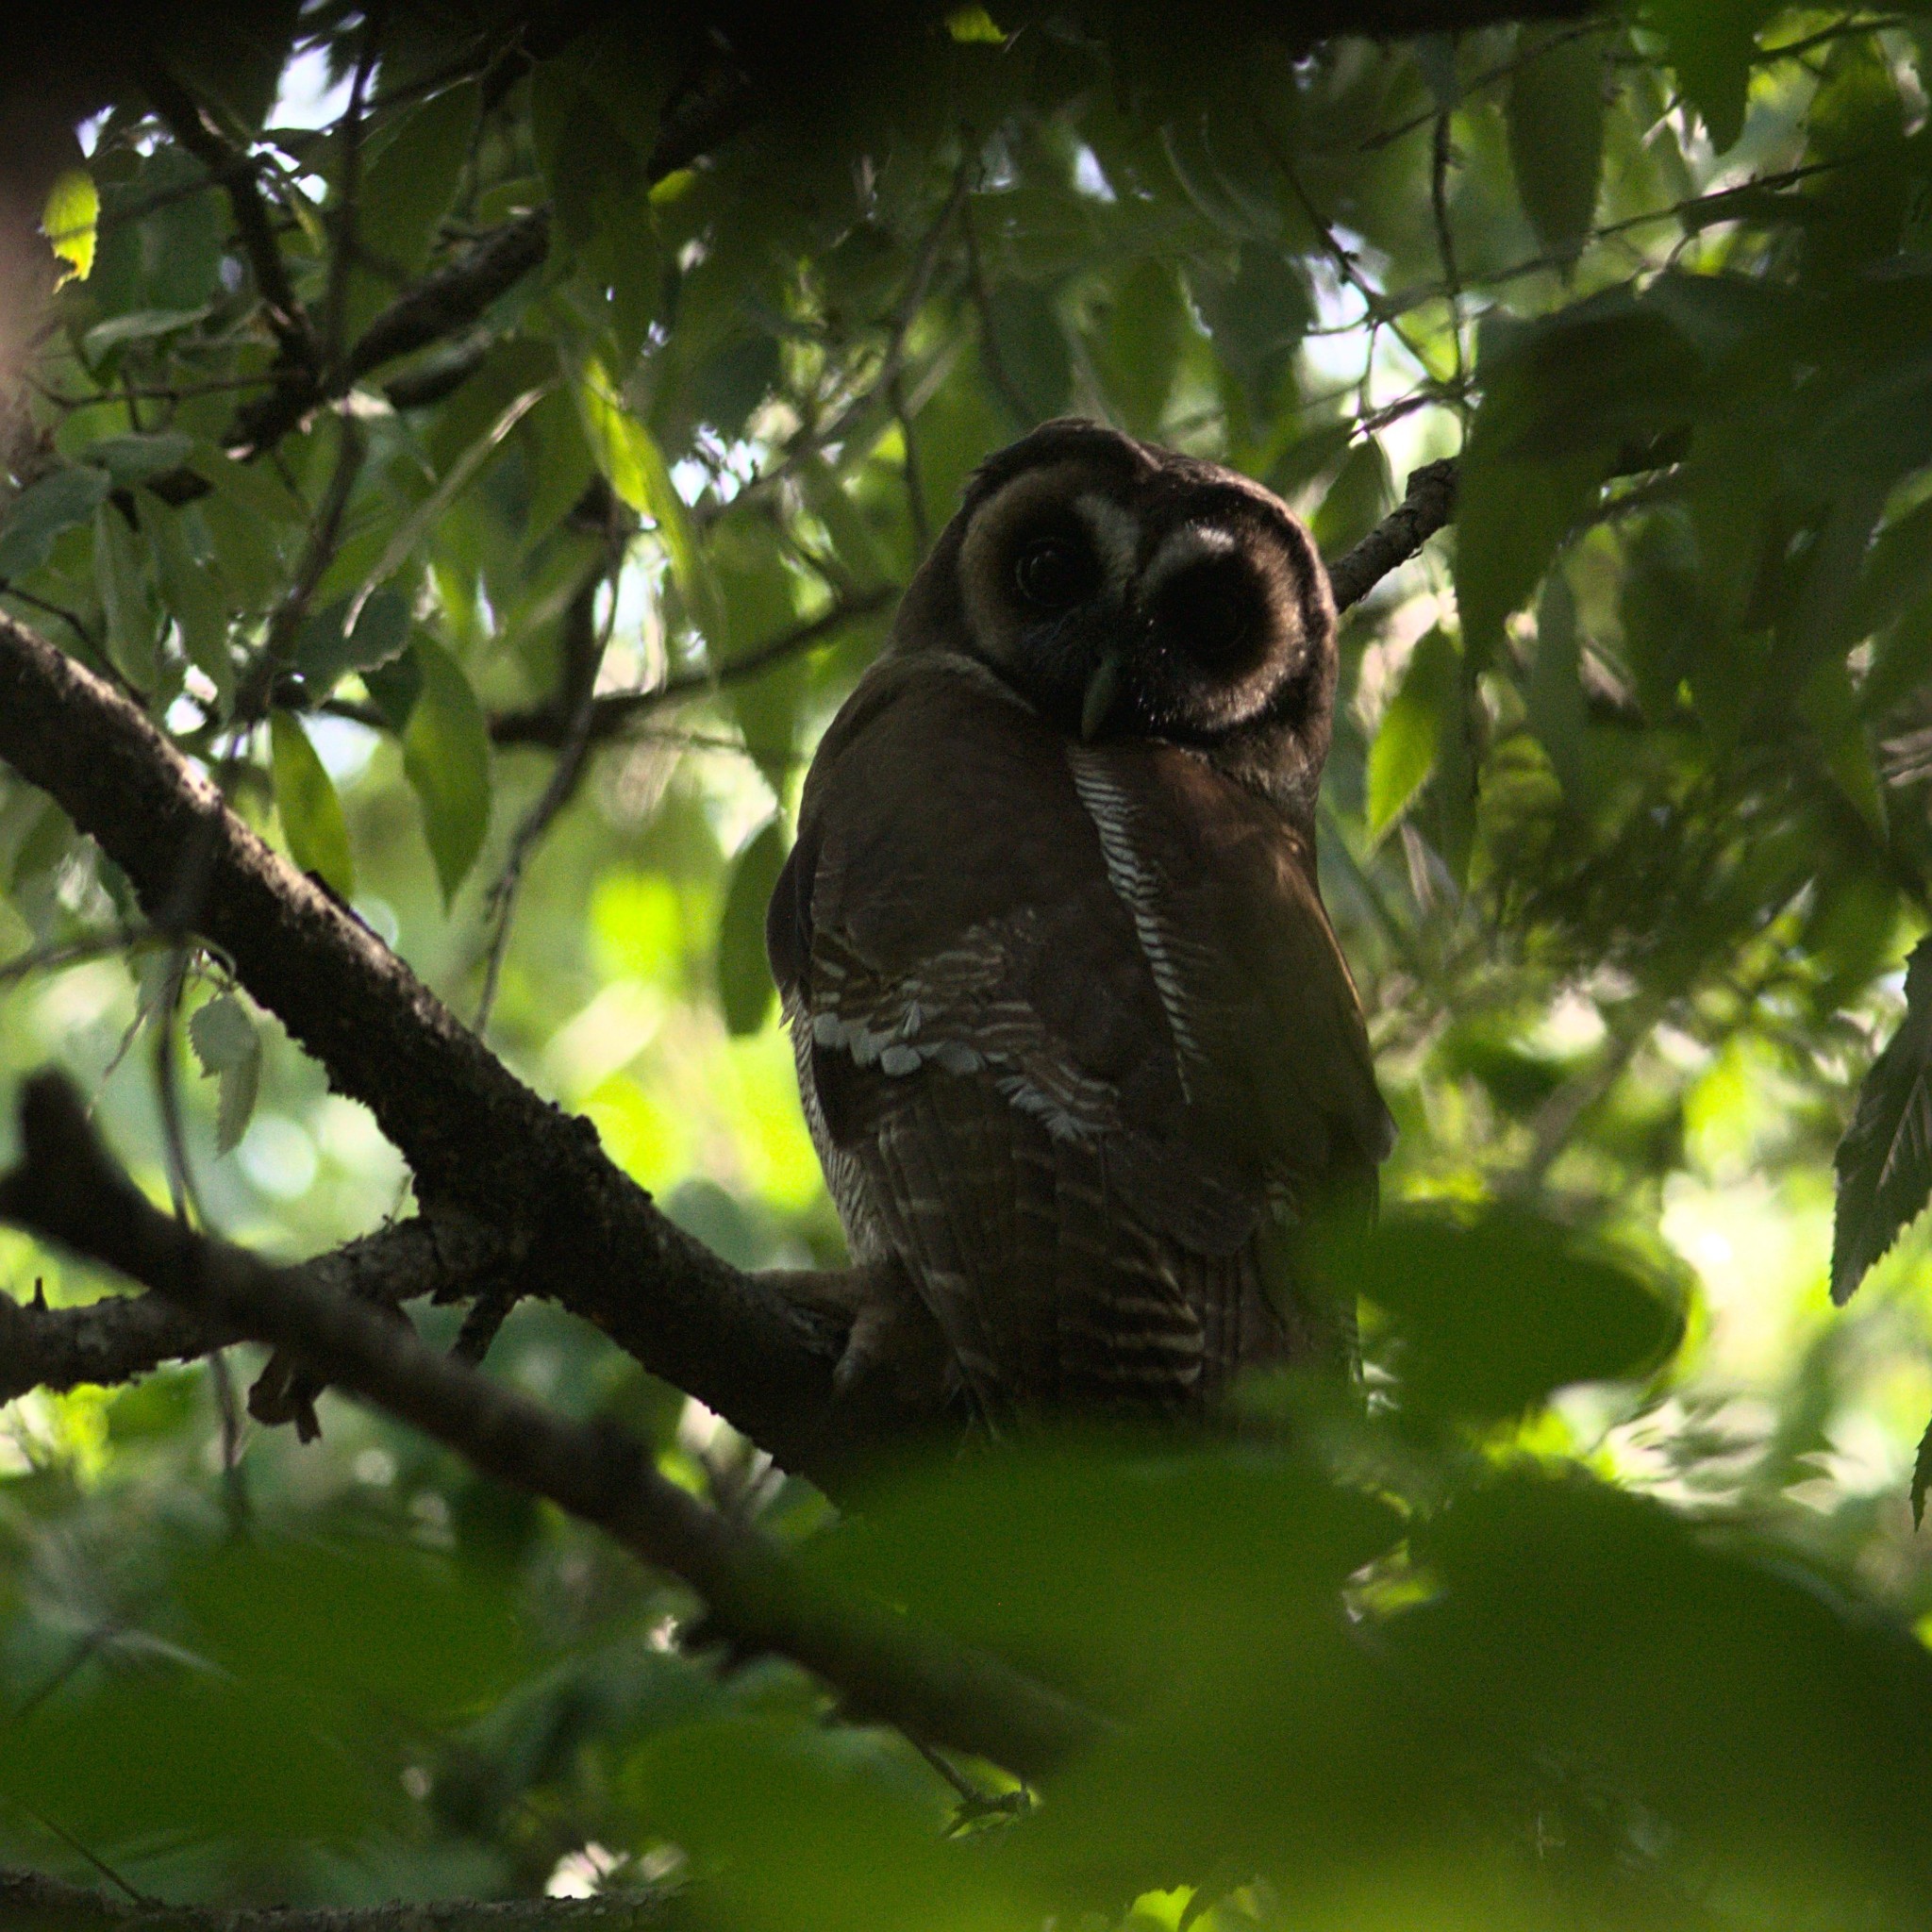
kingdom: Animalia
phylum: Chordata
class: Aves
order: Strigiformes
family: Strigidae
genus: Strix
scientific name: Strix leptogrammica
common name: Brown wood owl
